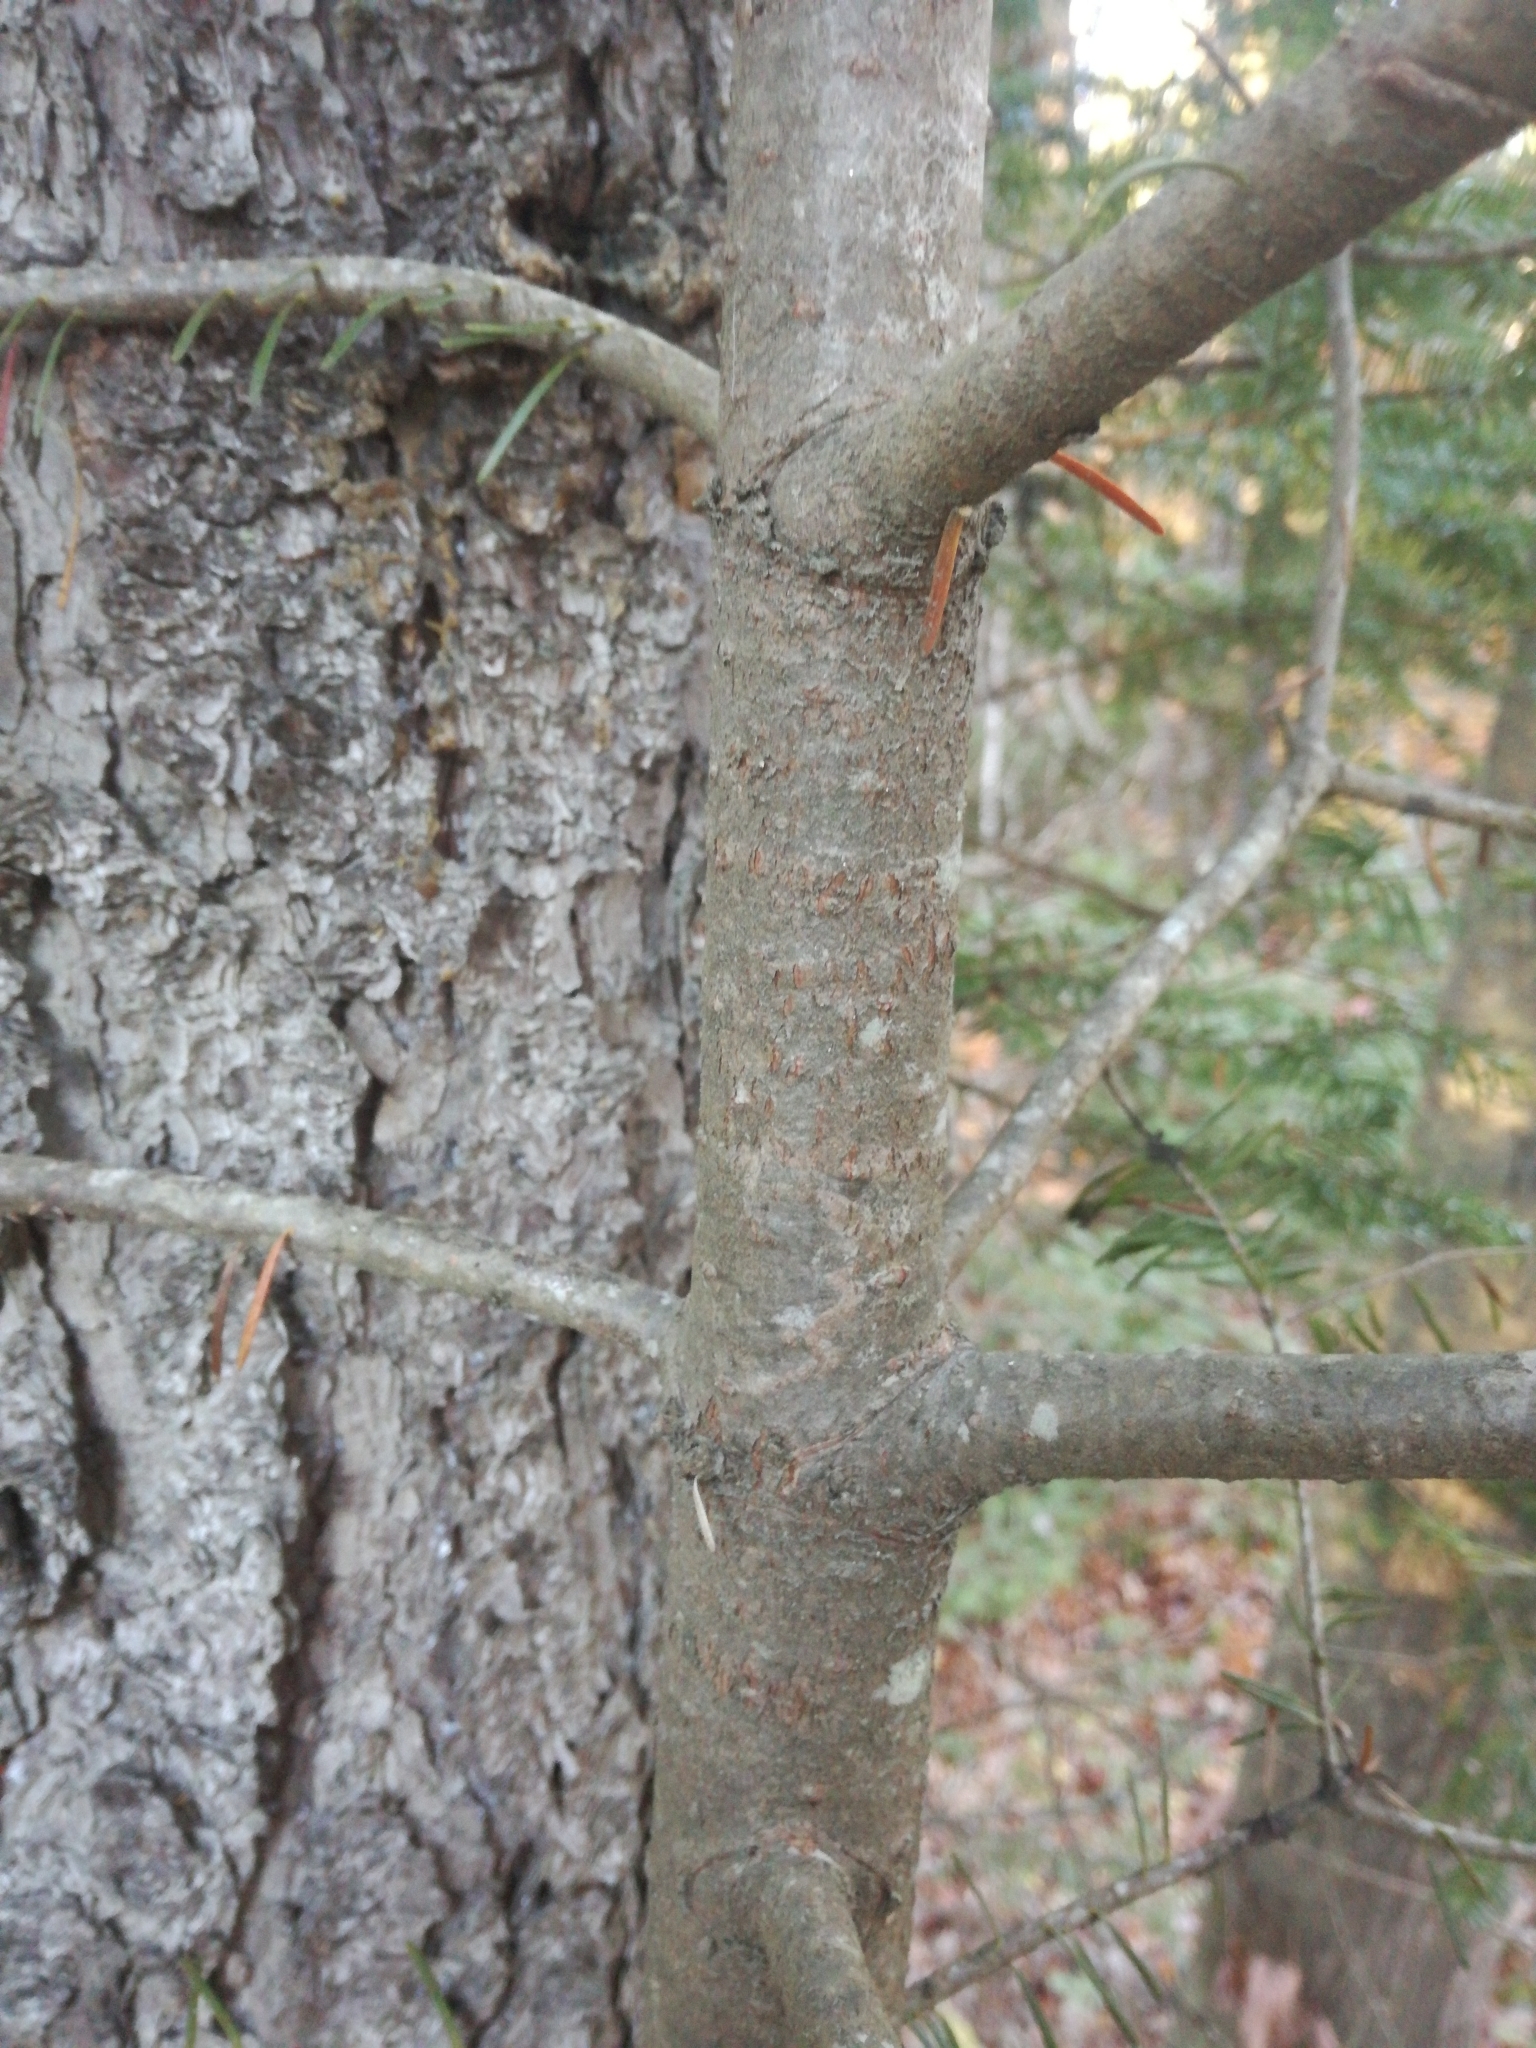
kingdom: Plantae
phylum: Tracheophyta
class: Pinopsida
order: Pinales
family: Pinaceae
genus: Abies
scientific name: Abies balsamea
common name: Balsam fir
